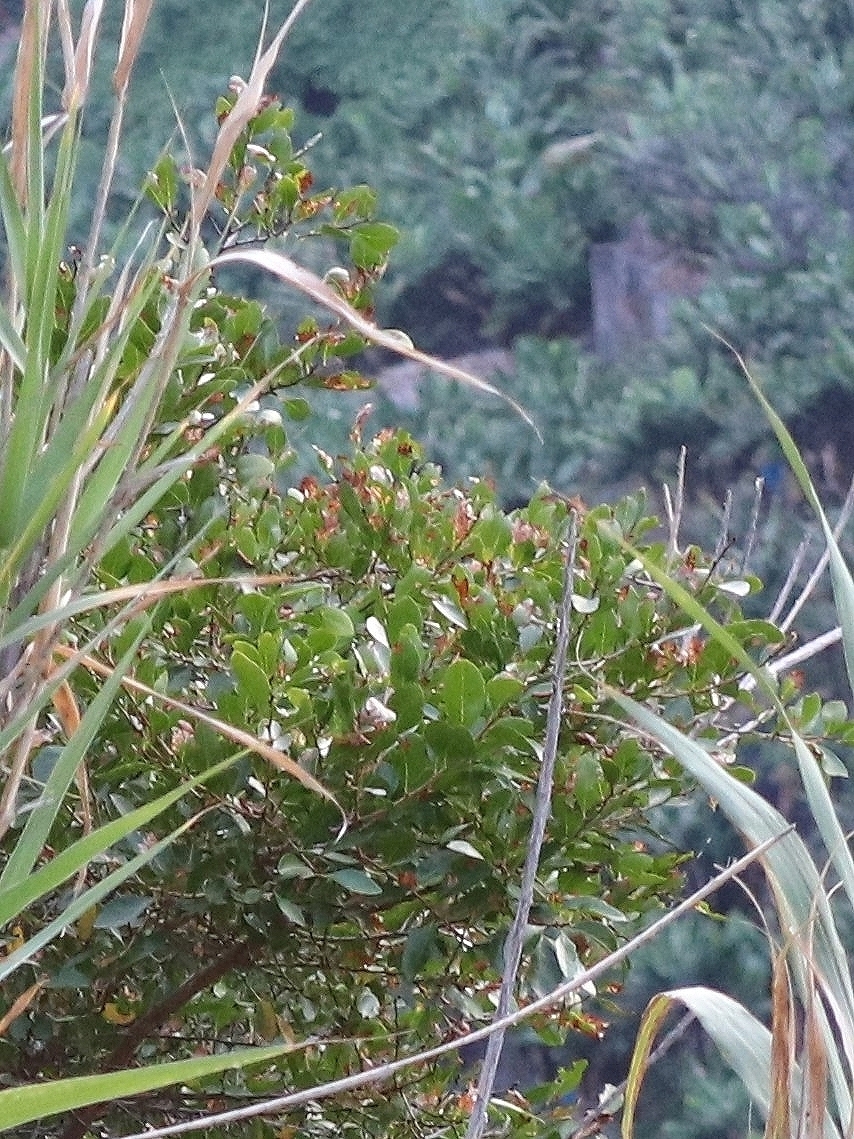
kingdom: Plantae
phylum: Tracheophyta
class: Magnoliopsida
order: Rosales
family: Rosaceae
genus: Chamaemeles
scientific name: Chamaemeles coriacea
